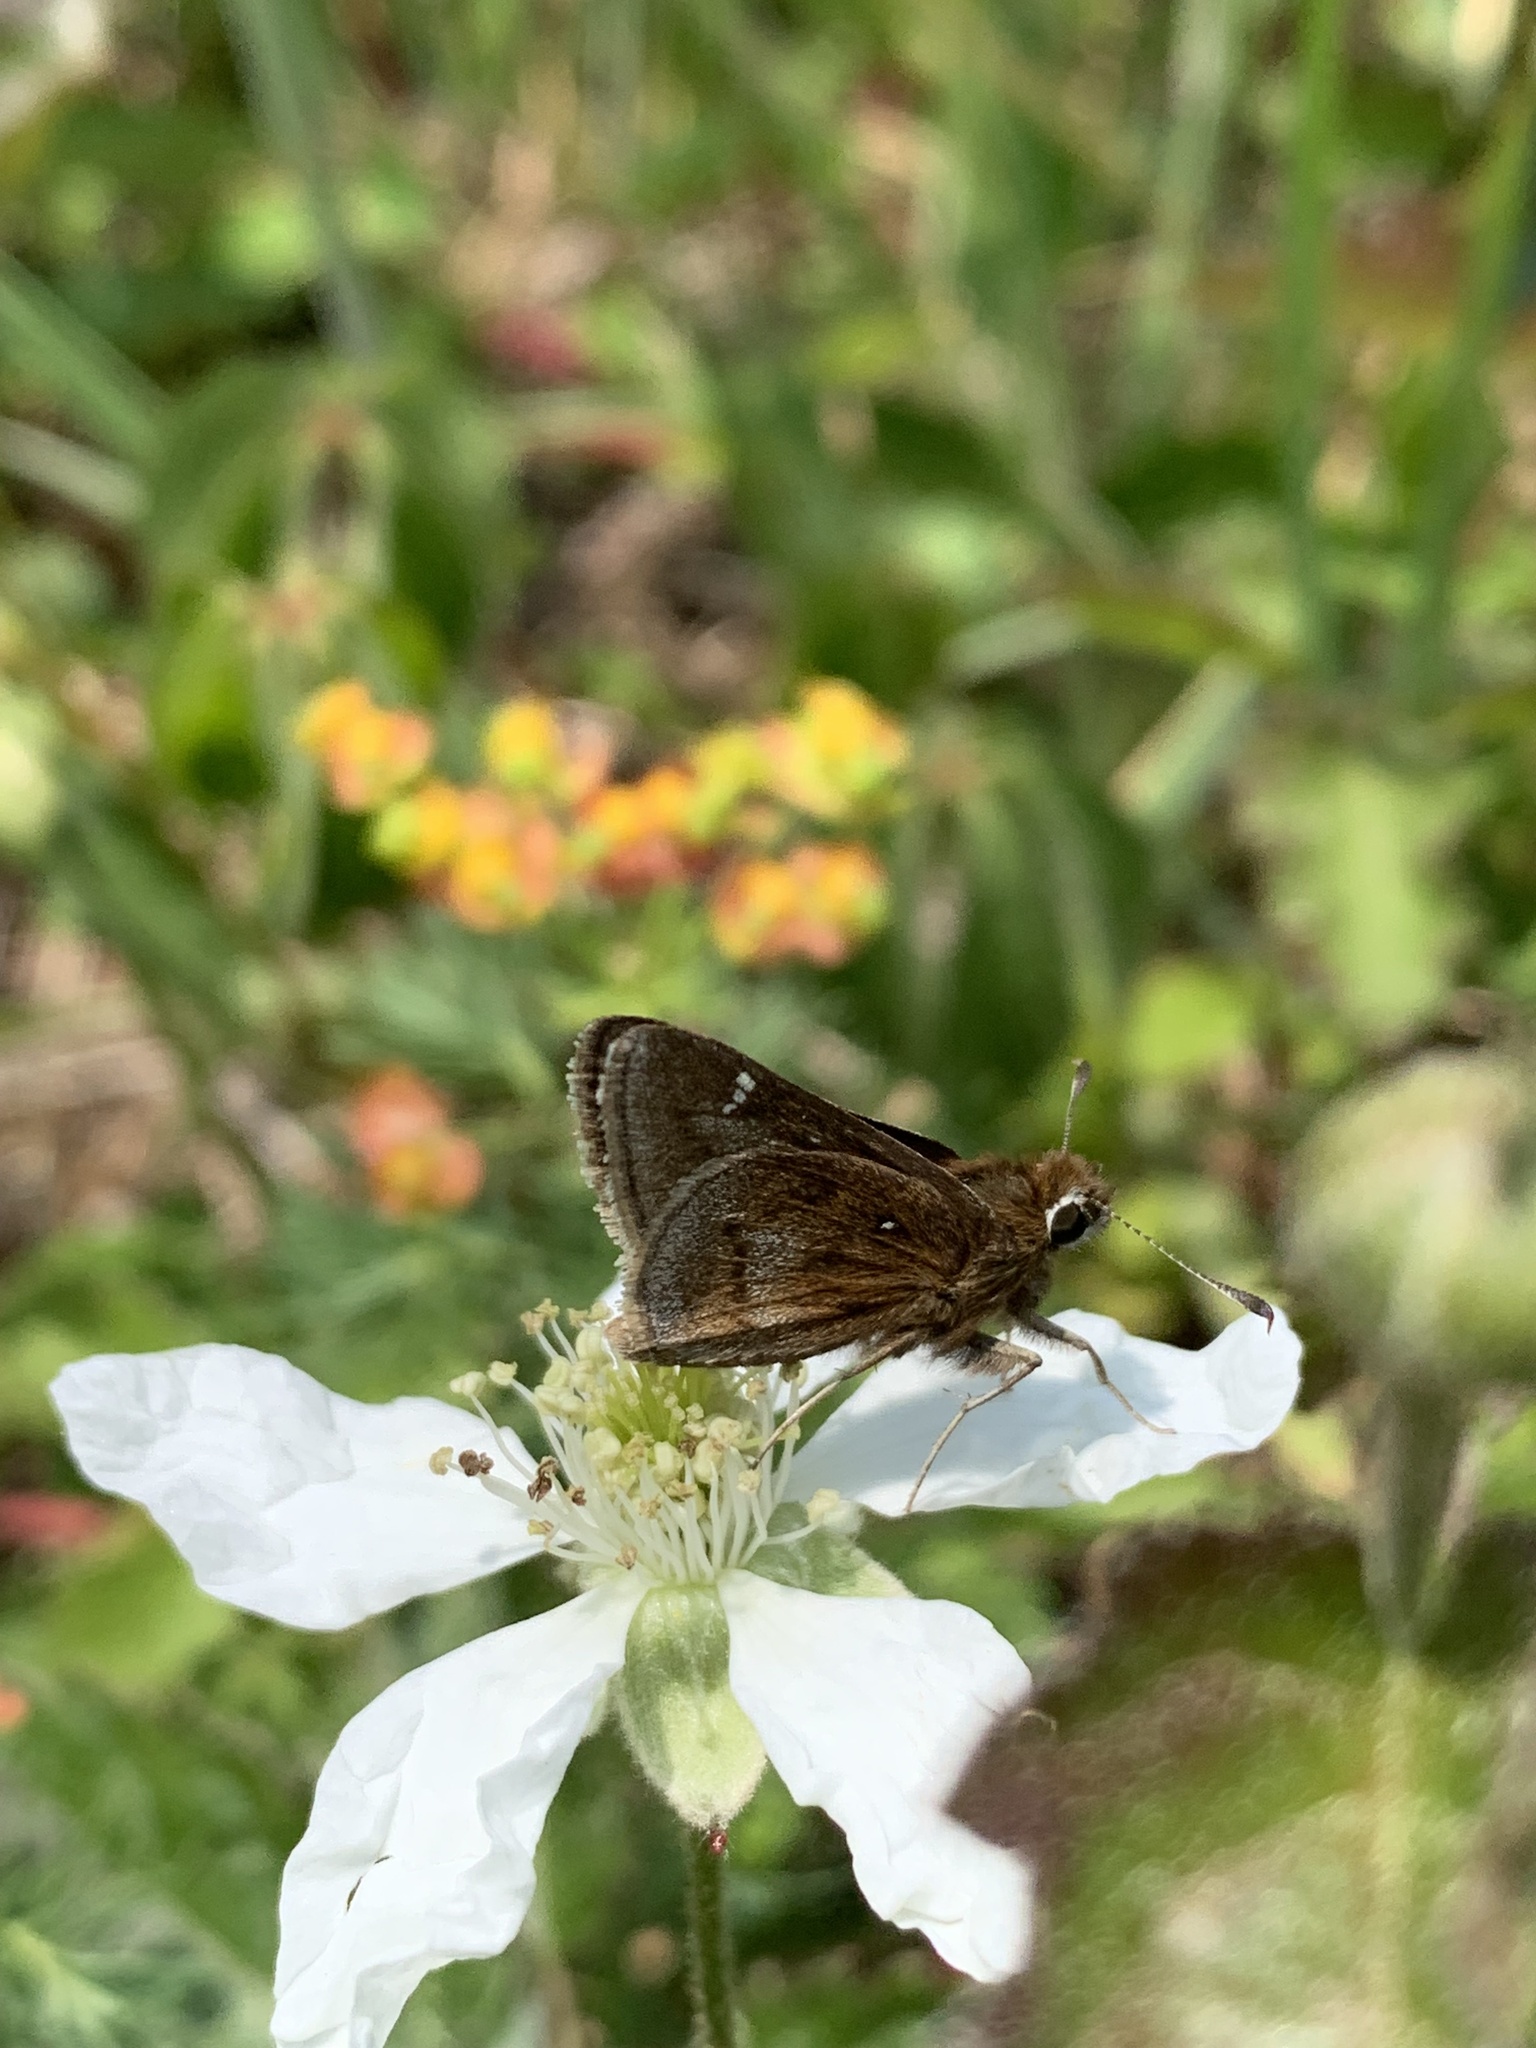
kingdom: Animalia
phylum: Arthropoda
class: Insecta
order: Lepidoptera
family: Hesperiidae
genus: Atrytonopsis
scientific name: Atrytonopsis hianna
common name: Dusted skipper
